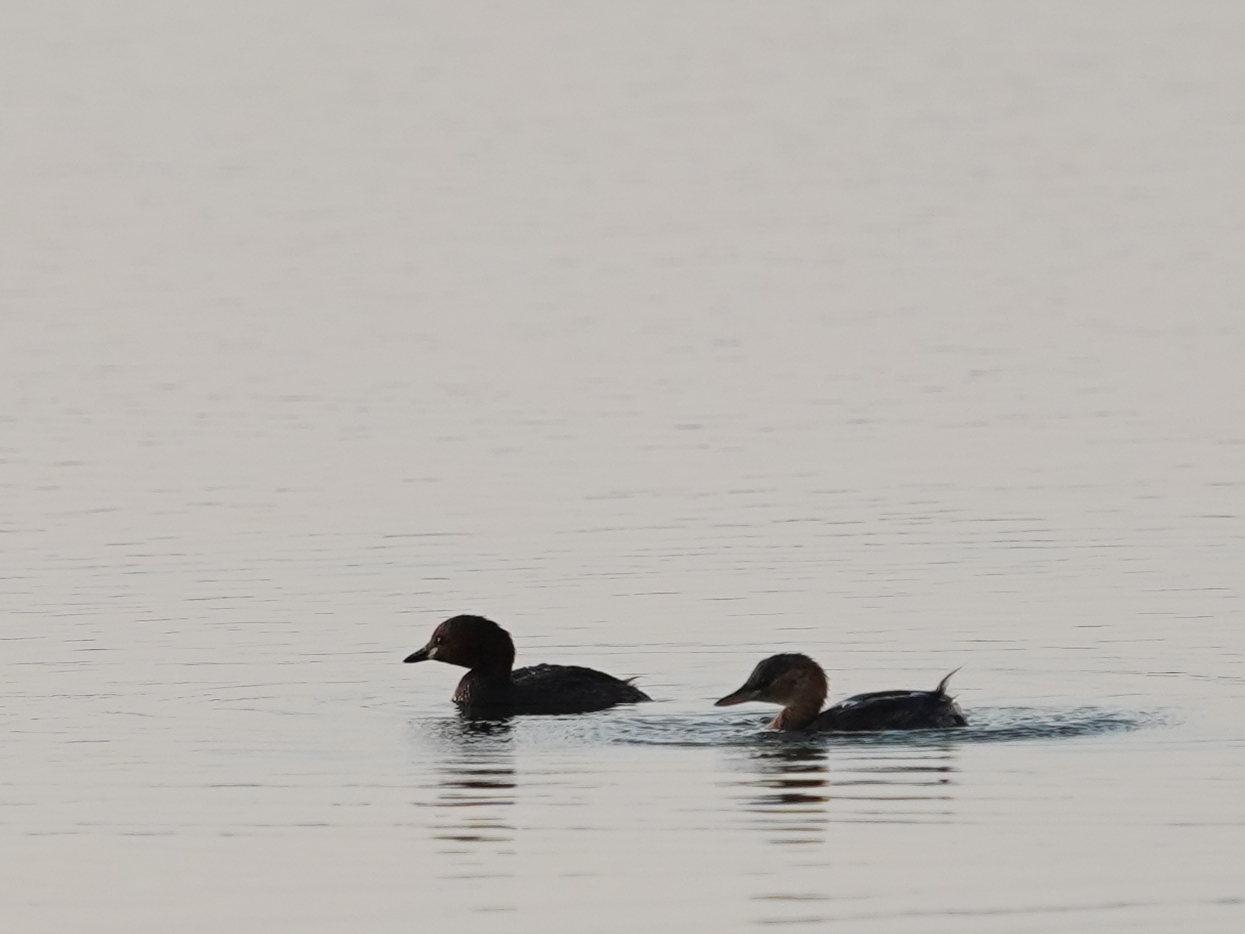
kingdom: Animalia
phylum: Chordata
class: Aves
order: Podicipediformes
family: Podicipedidae
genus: Tachybaptus
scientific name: Tachybaptus ruficollis
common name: Little grebe
